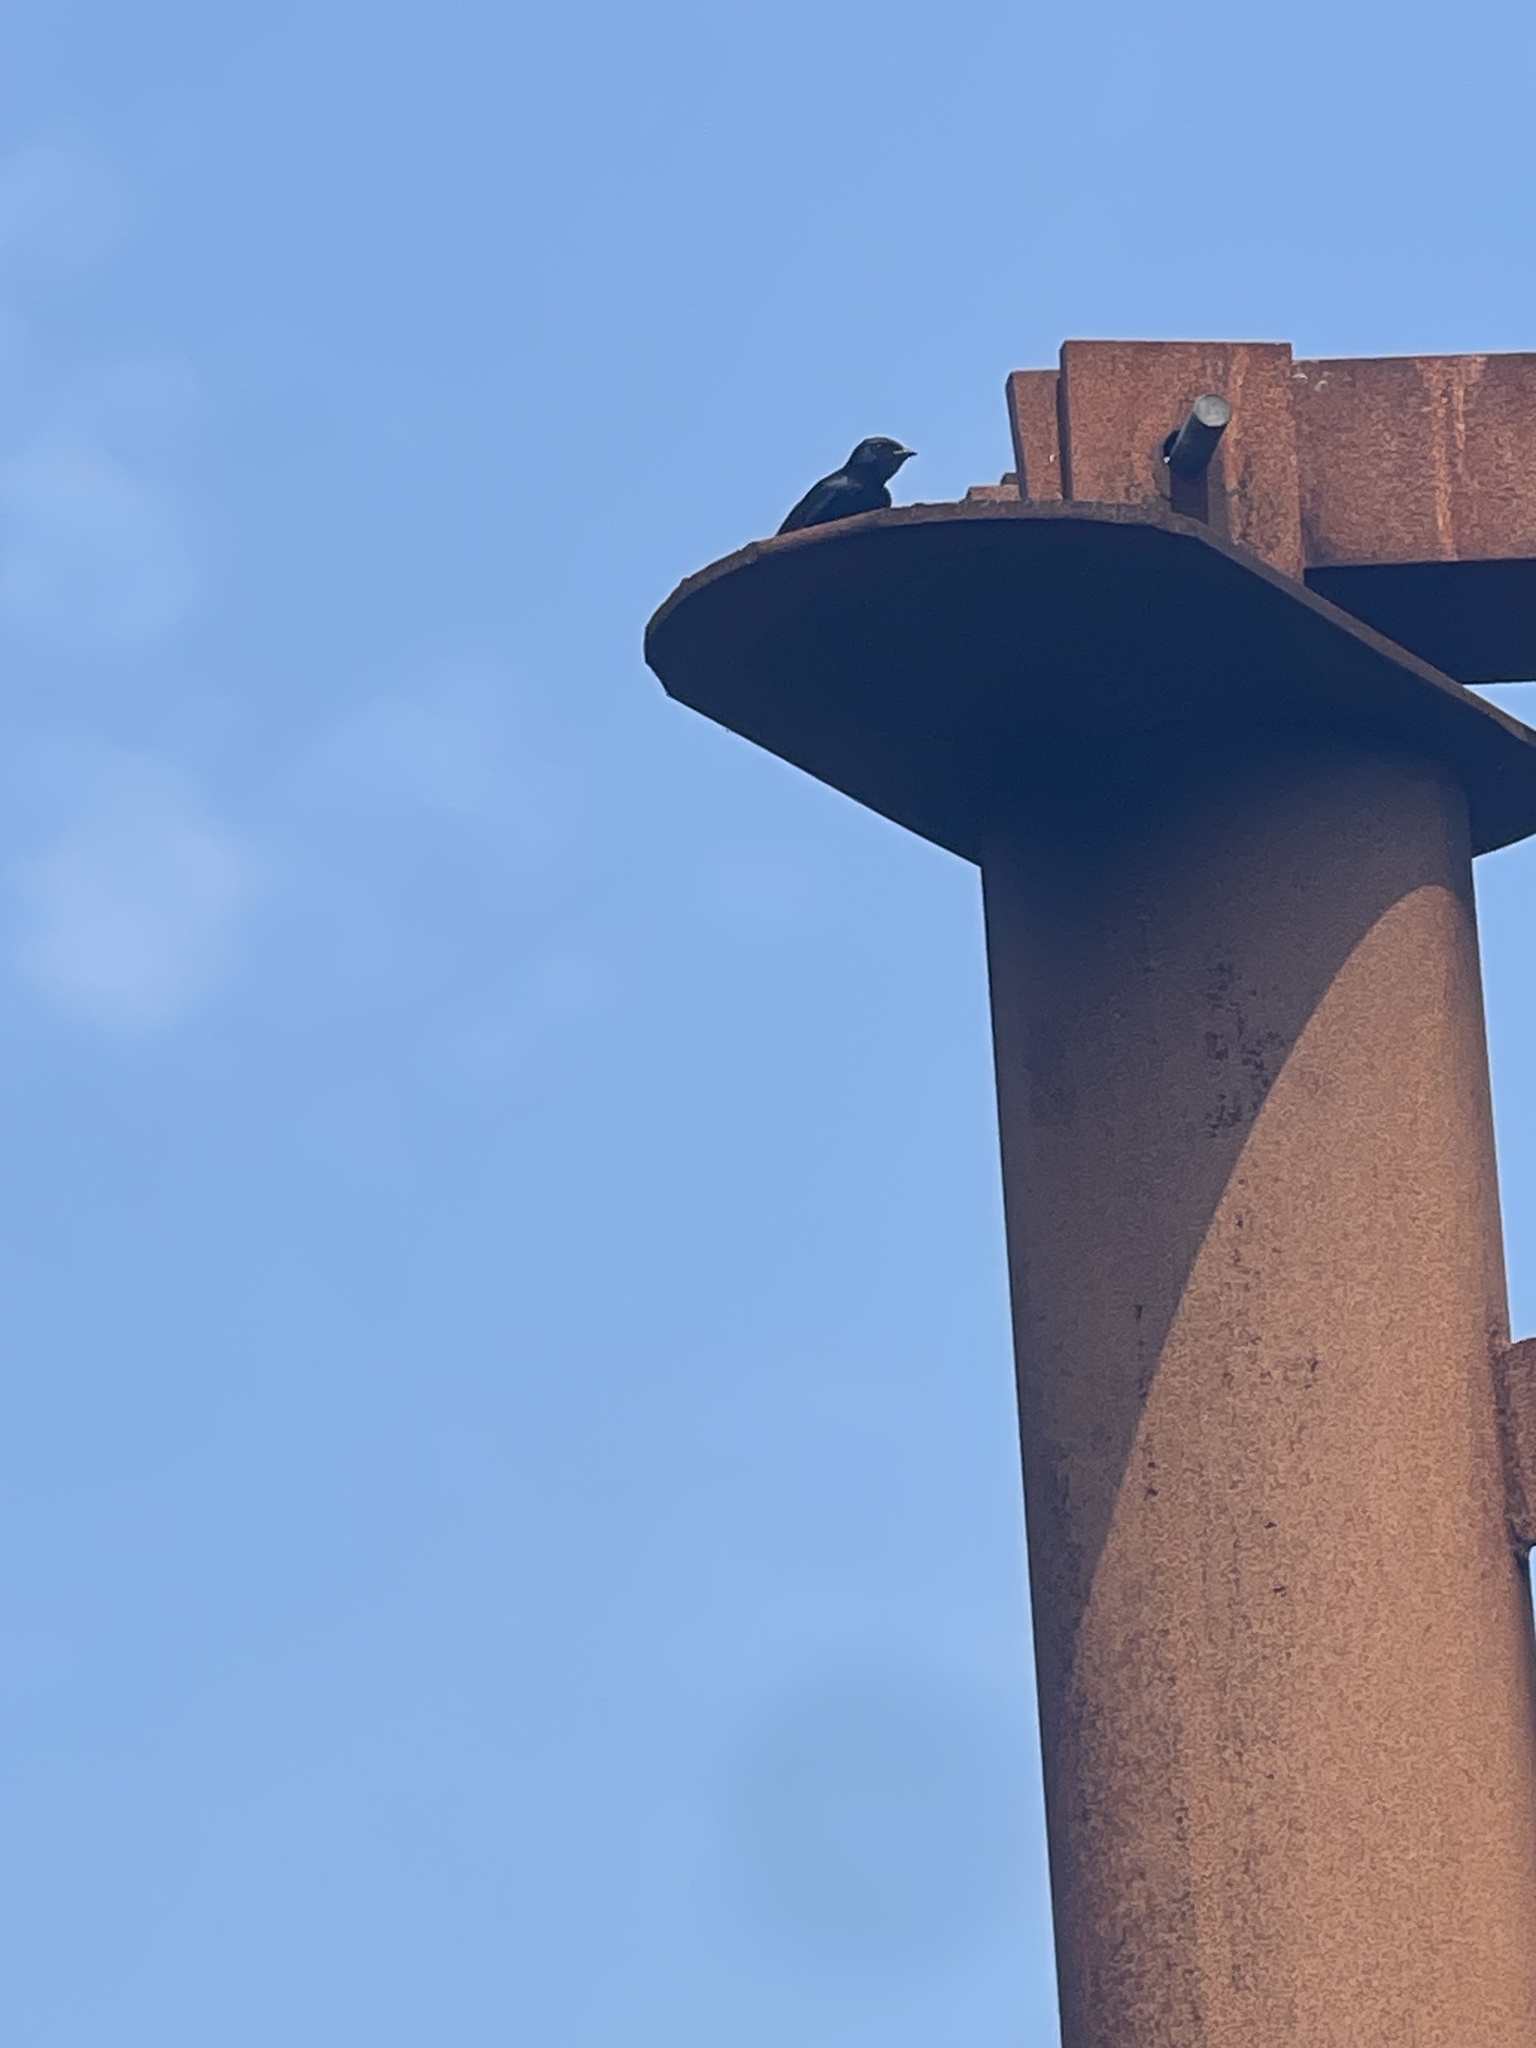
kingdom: Animalia
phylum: Chordata
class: Aves
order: Passeriformes
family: Hirundinidae
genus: Progne
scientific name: Progne subis
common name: Purple martin
